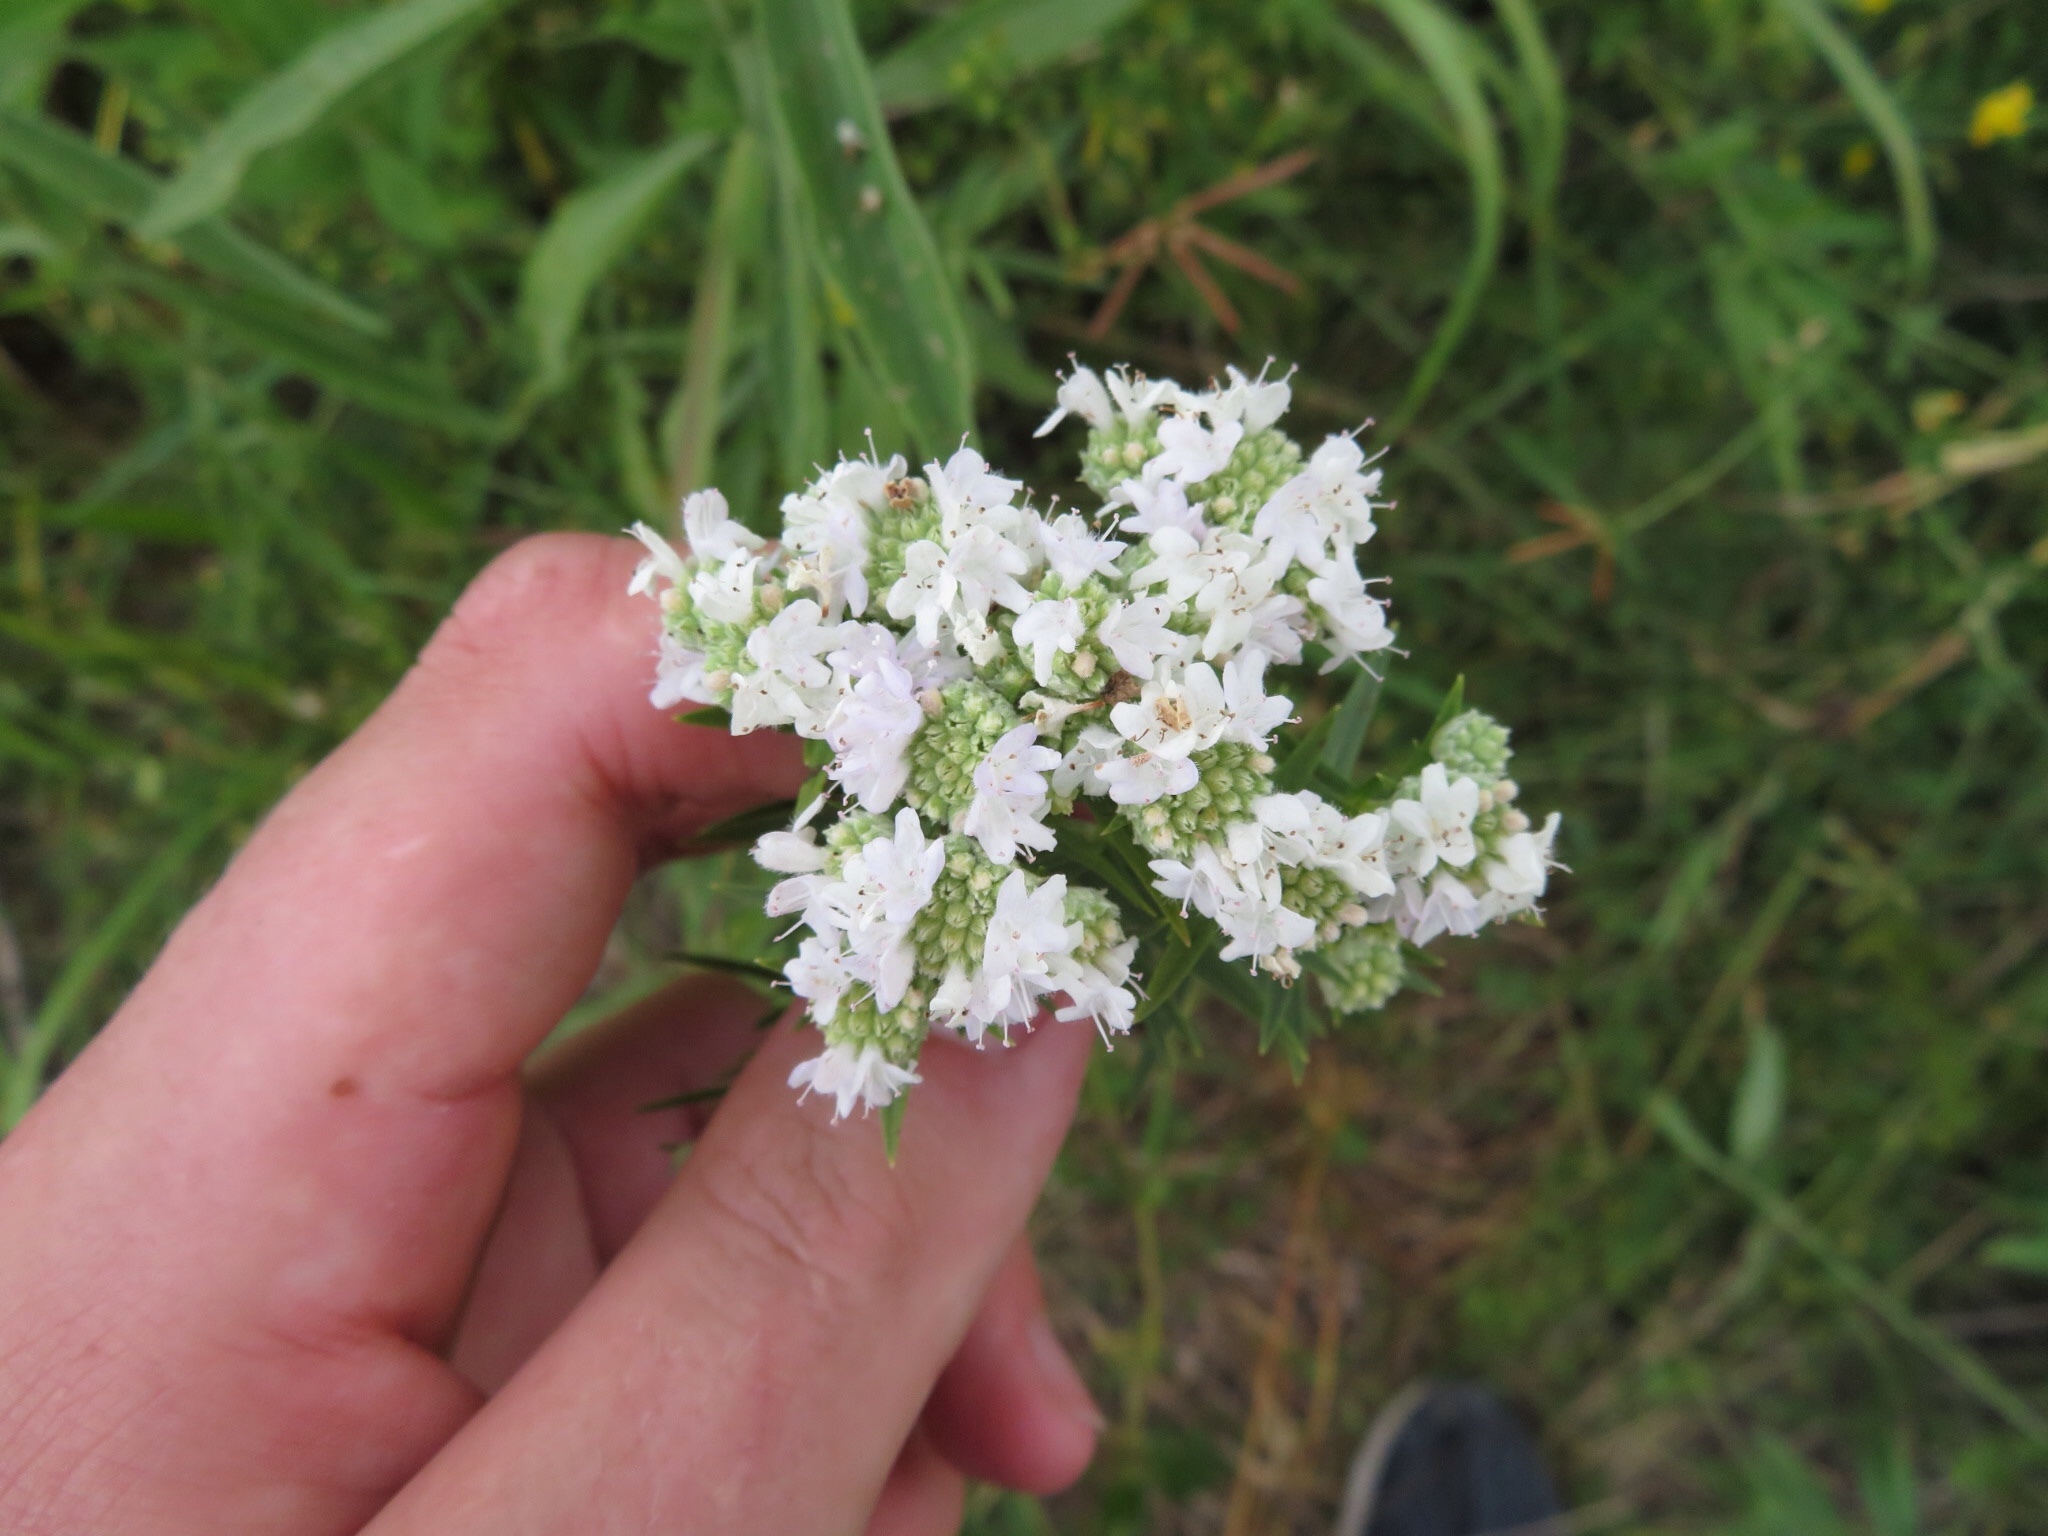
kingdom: Plantae
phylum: Tracheophyta
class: Magnoliopsida
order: Lamiales
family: Lamiaceae
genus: Pycnanthemum
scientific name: Pycnanthemum virginianum
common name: Virginia mountain-mint
